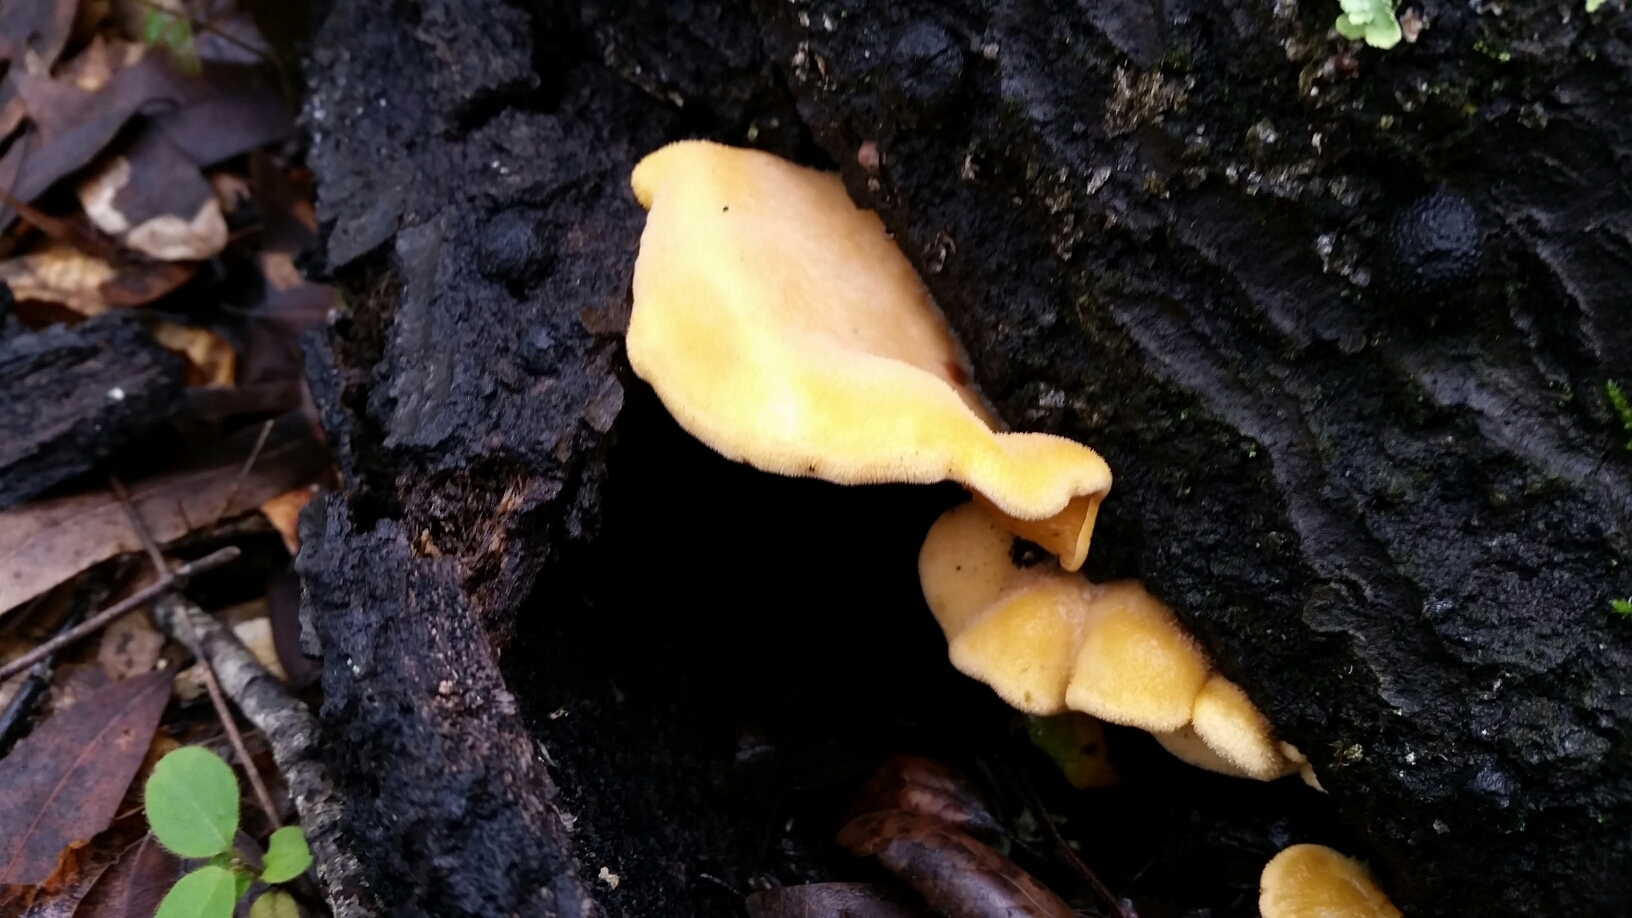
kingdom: Fungi
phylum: Basidiomycota
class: Agaricomycetes
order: Agaricales
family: Phyllotopsidaceae
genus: Phyllotopsis
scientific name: Phyllotopsis nidulans
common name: Orange mock oyster
